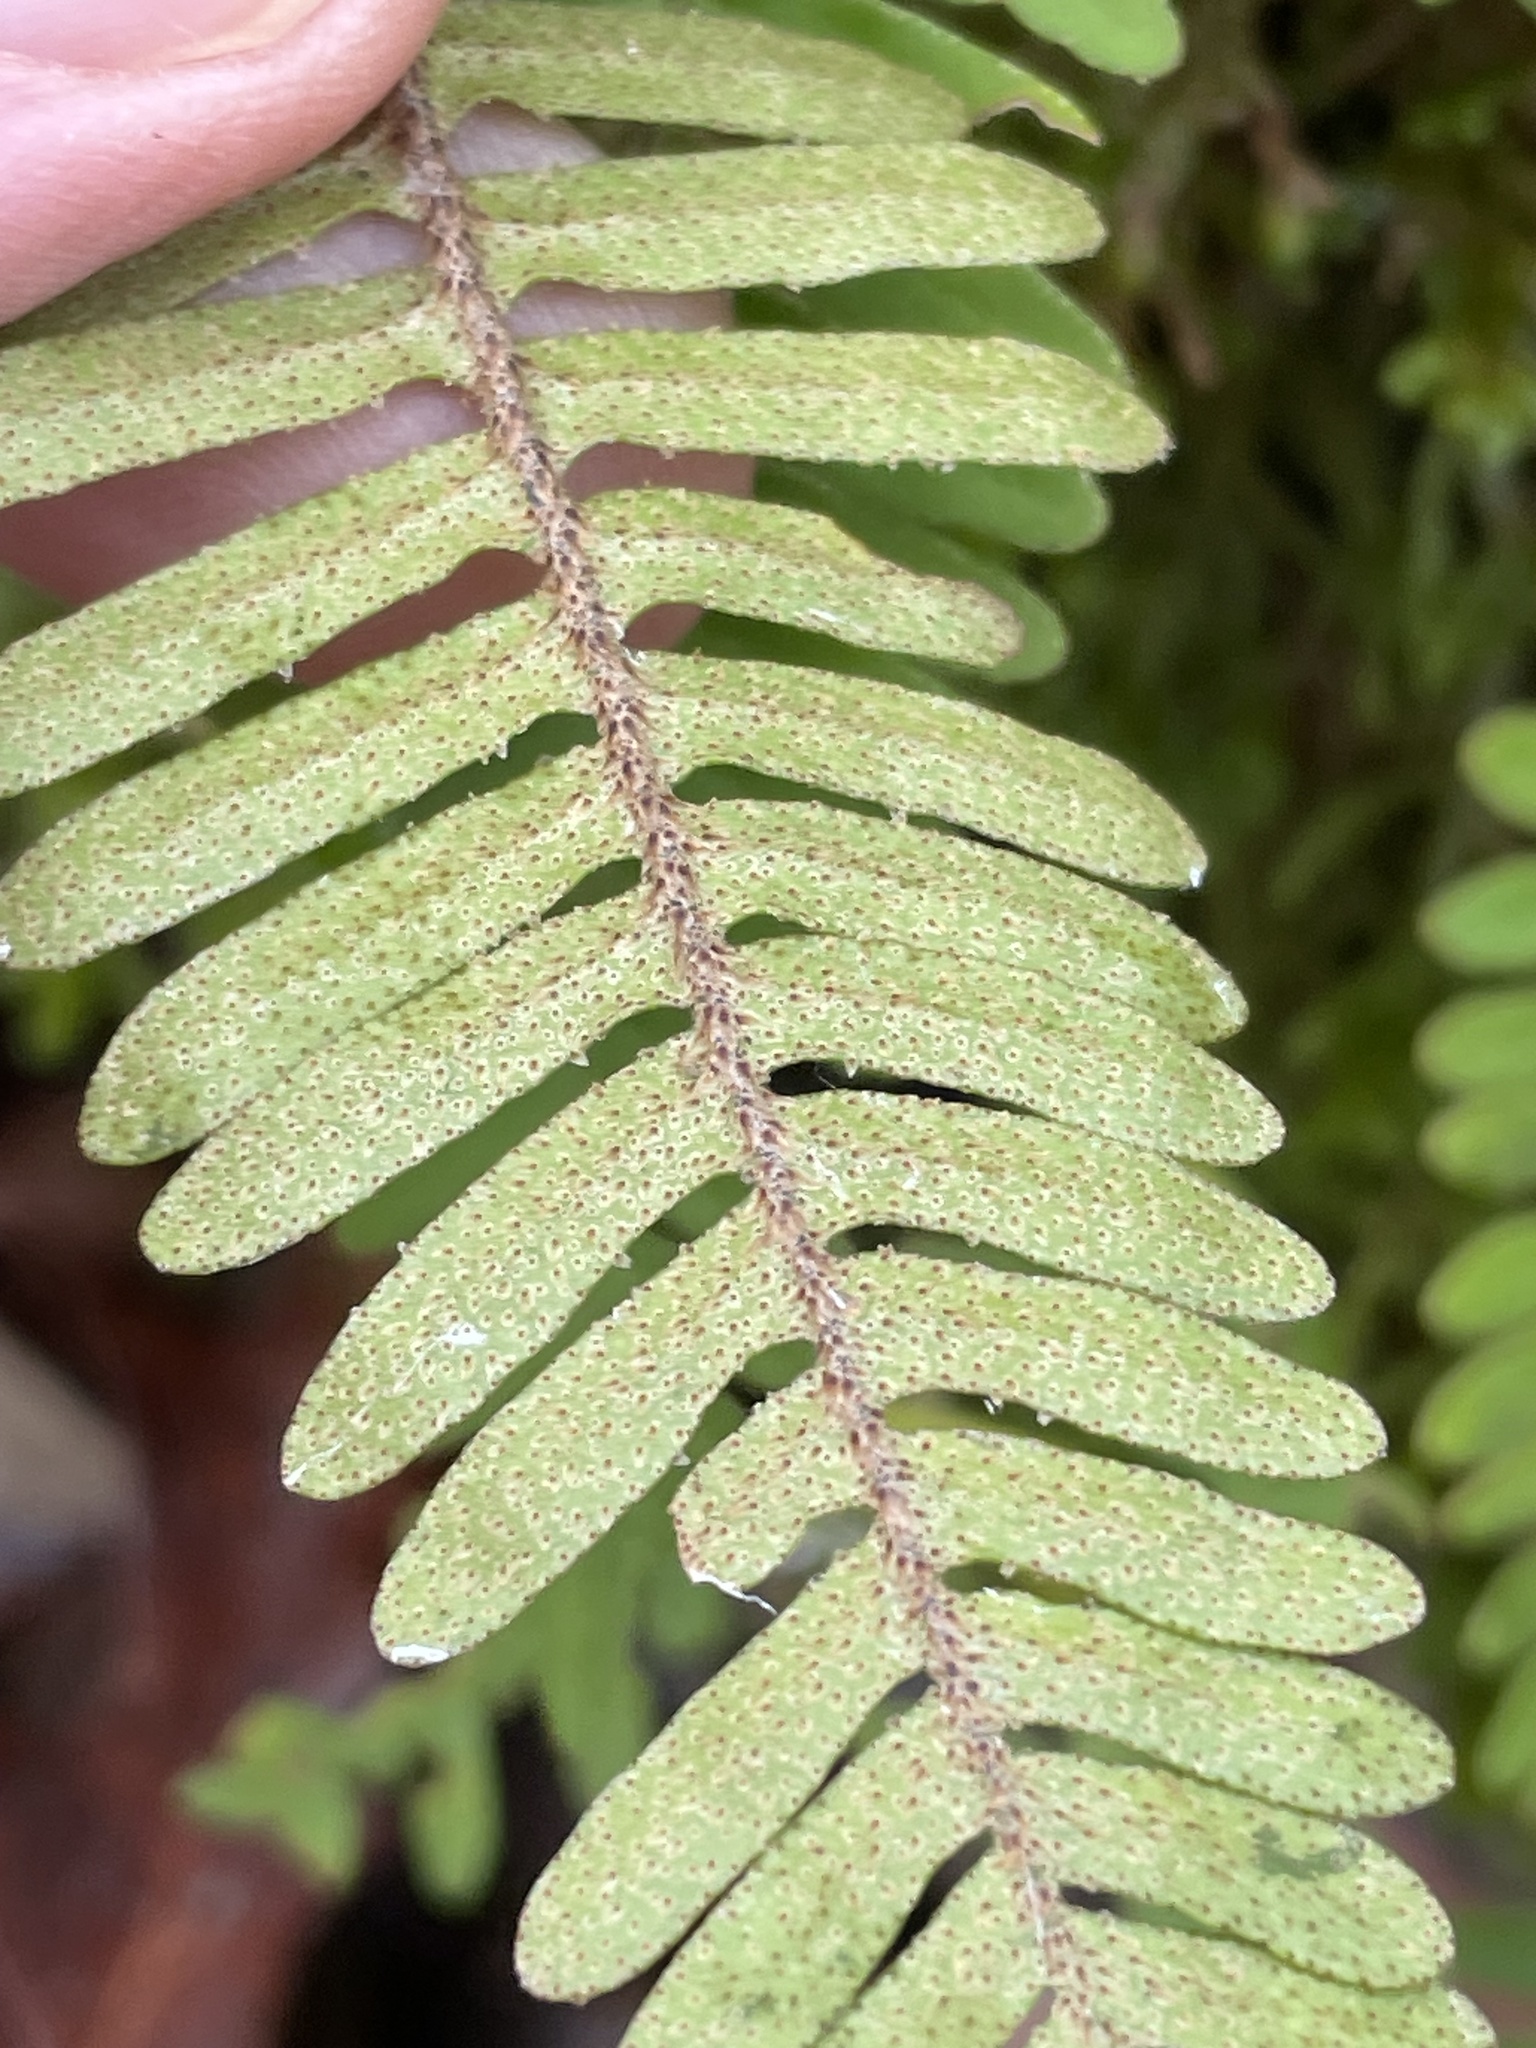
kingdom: Plantae
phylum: Tracheophyta
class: Polypodiopsida
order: Polypodiales
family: Polypodiaceae
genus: Pleopeltis
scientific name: Pleopeltis michauxiana
